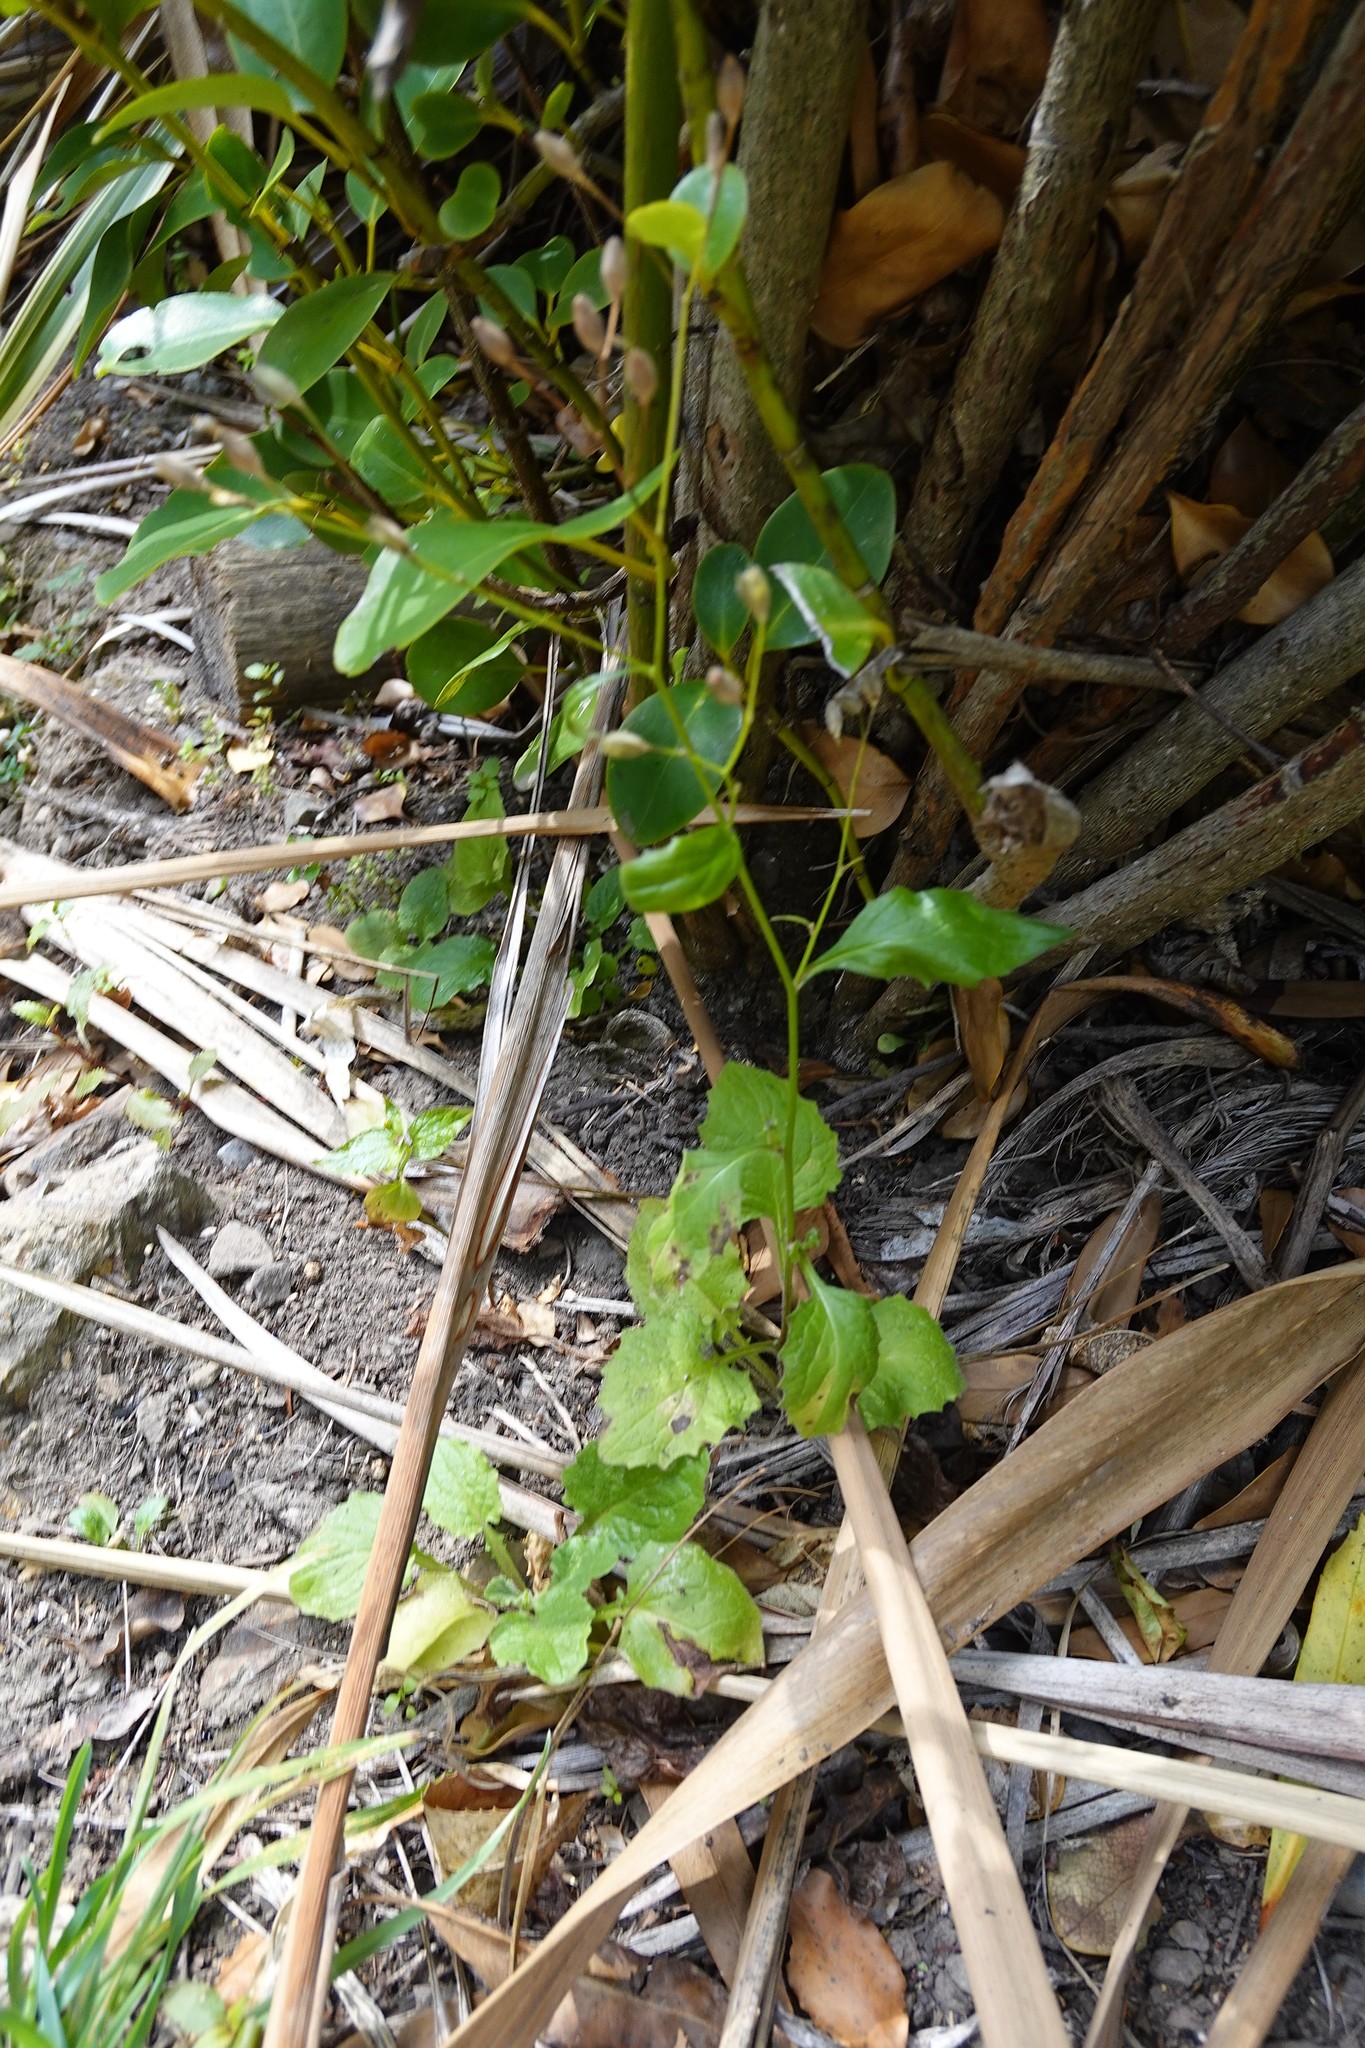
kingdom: Plantae
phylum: Tracheophyta
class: Magnoliopsida
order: Asterales
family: Asteraceae
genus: Lapsana
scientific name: Lapsana communis
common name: Nipplewort
